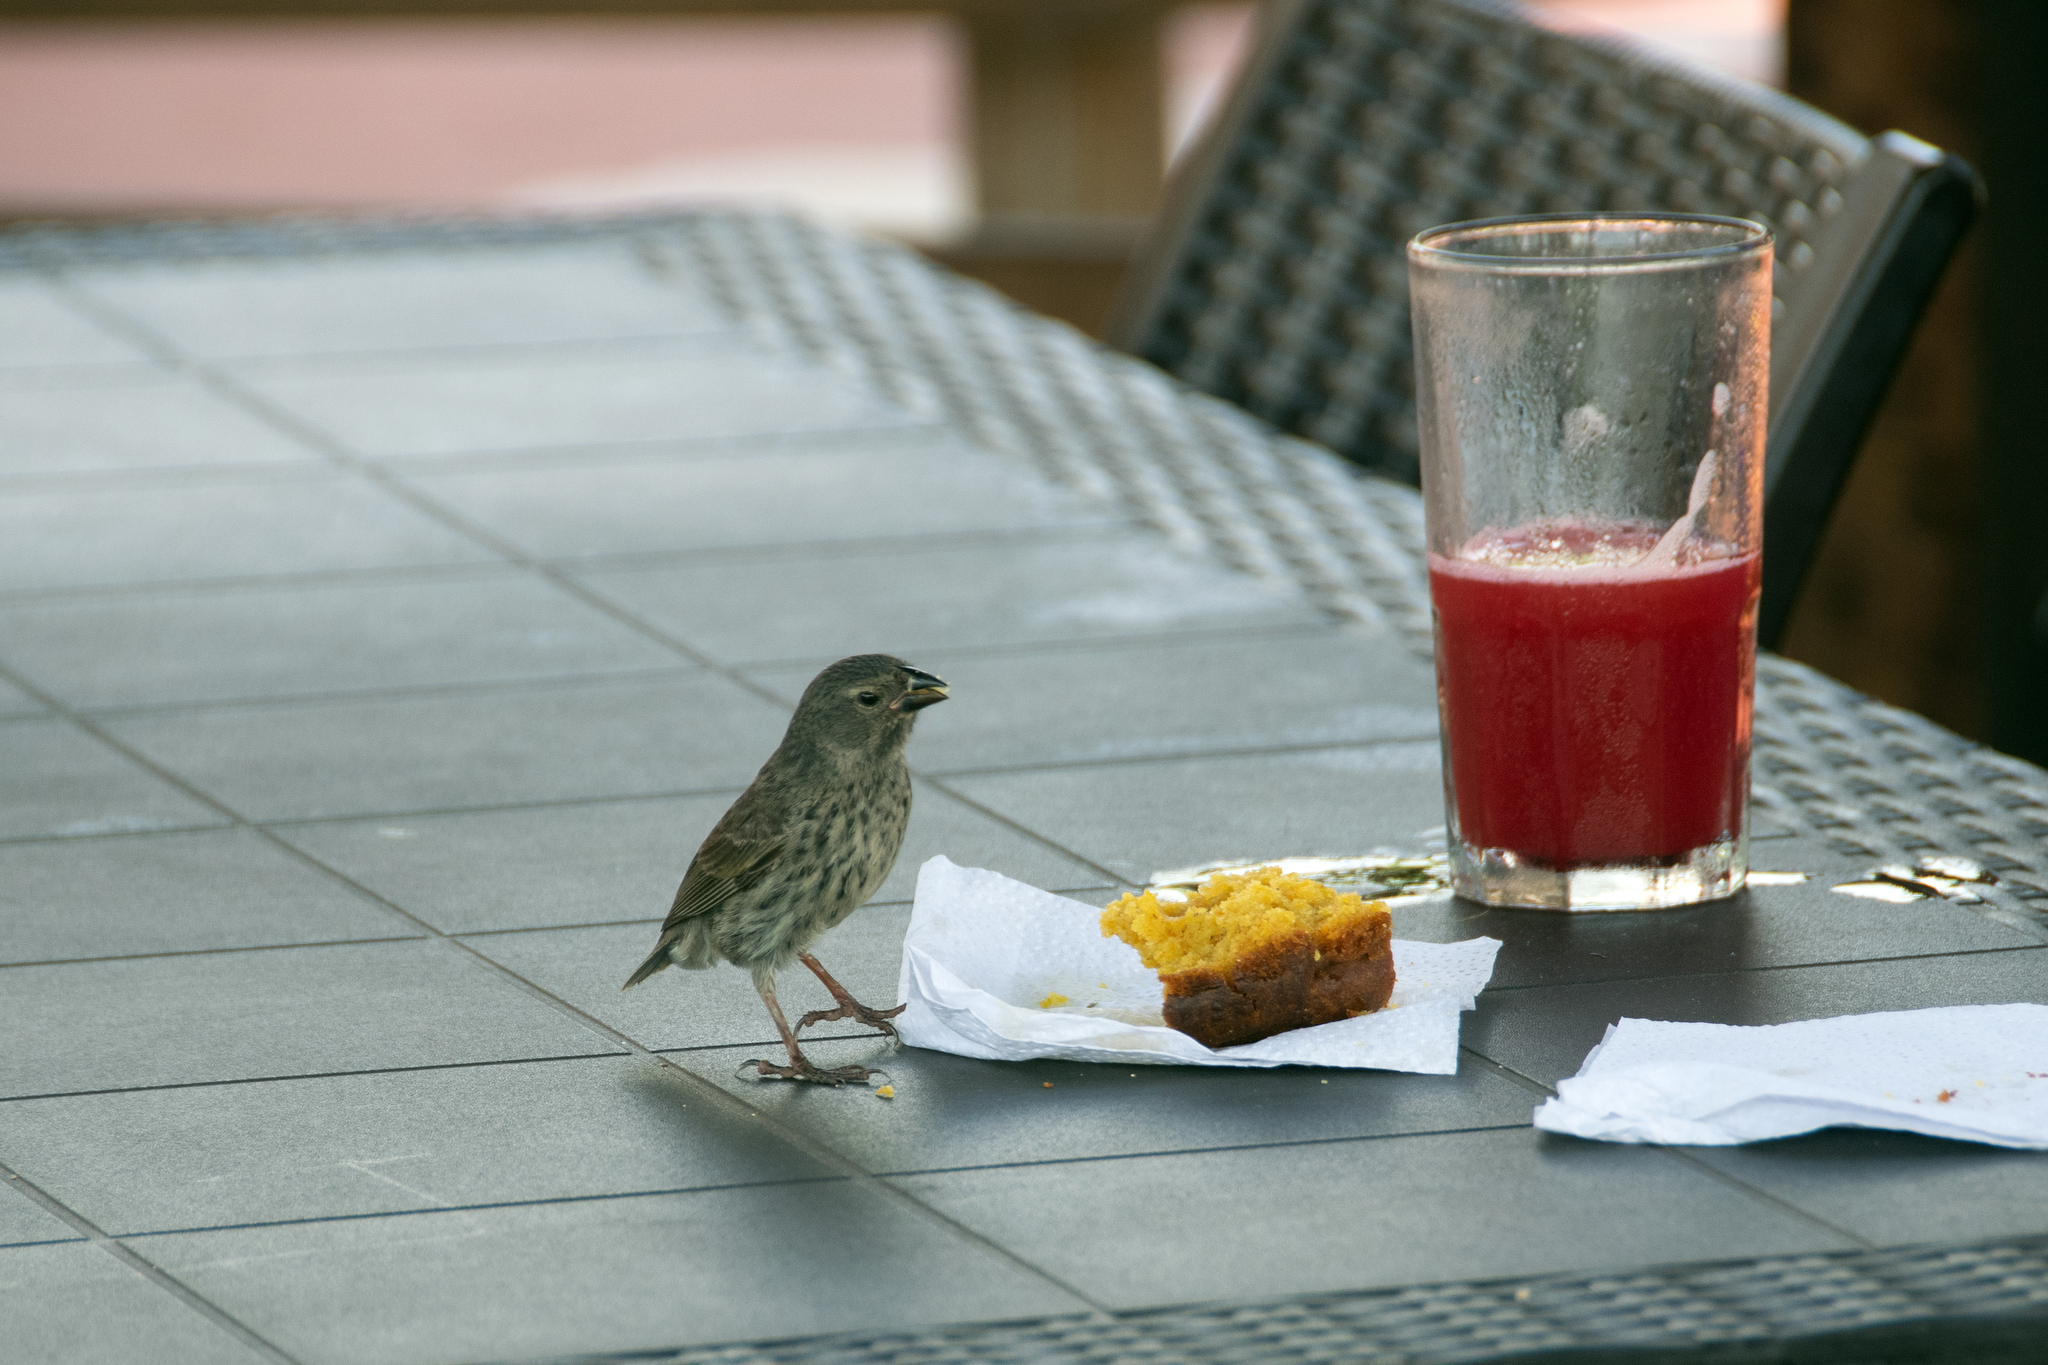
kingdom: Animalia
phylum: Chordata
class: Aves
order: Passeriformes
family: Thraupidae
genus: Geospiza
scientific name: Geospiza fuliginosa
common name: Small ground finch
